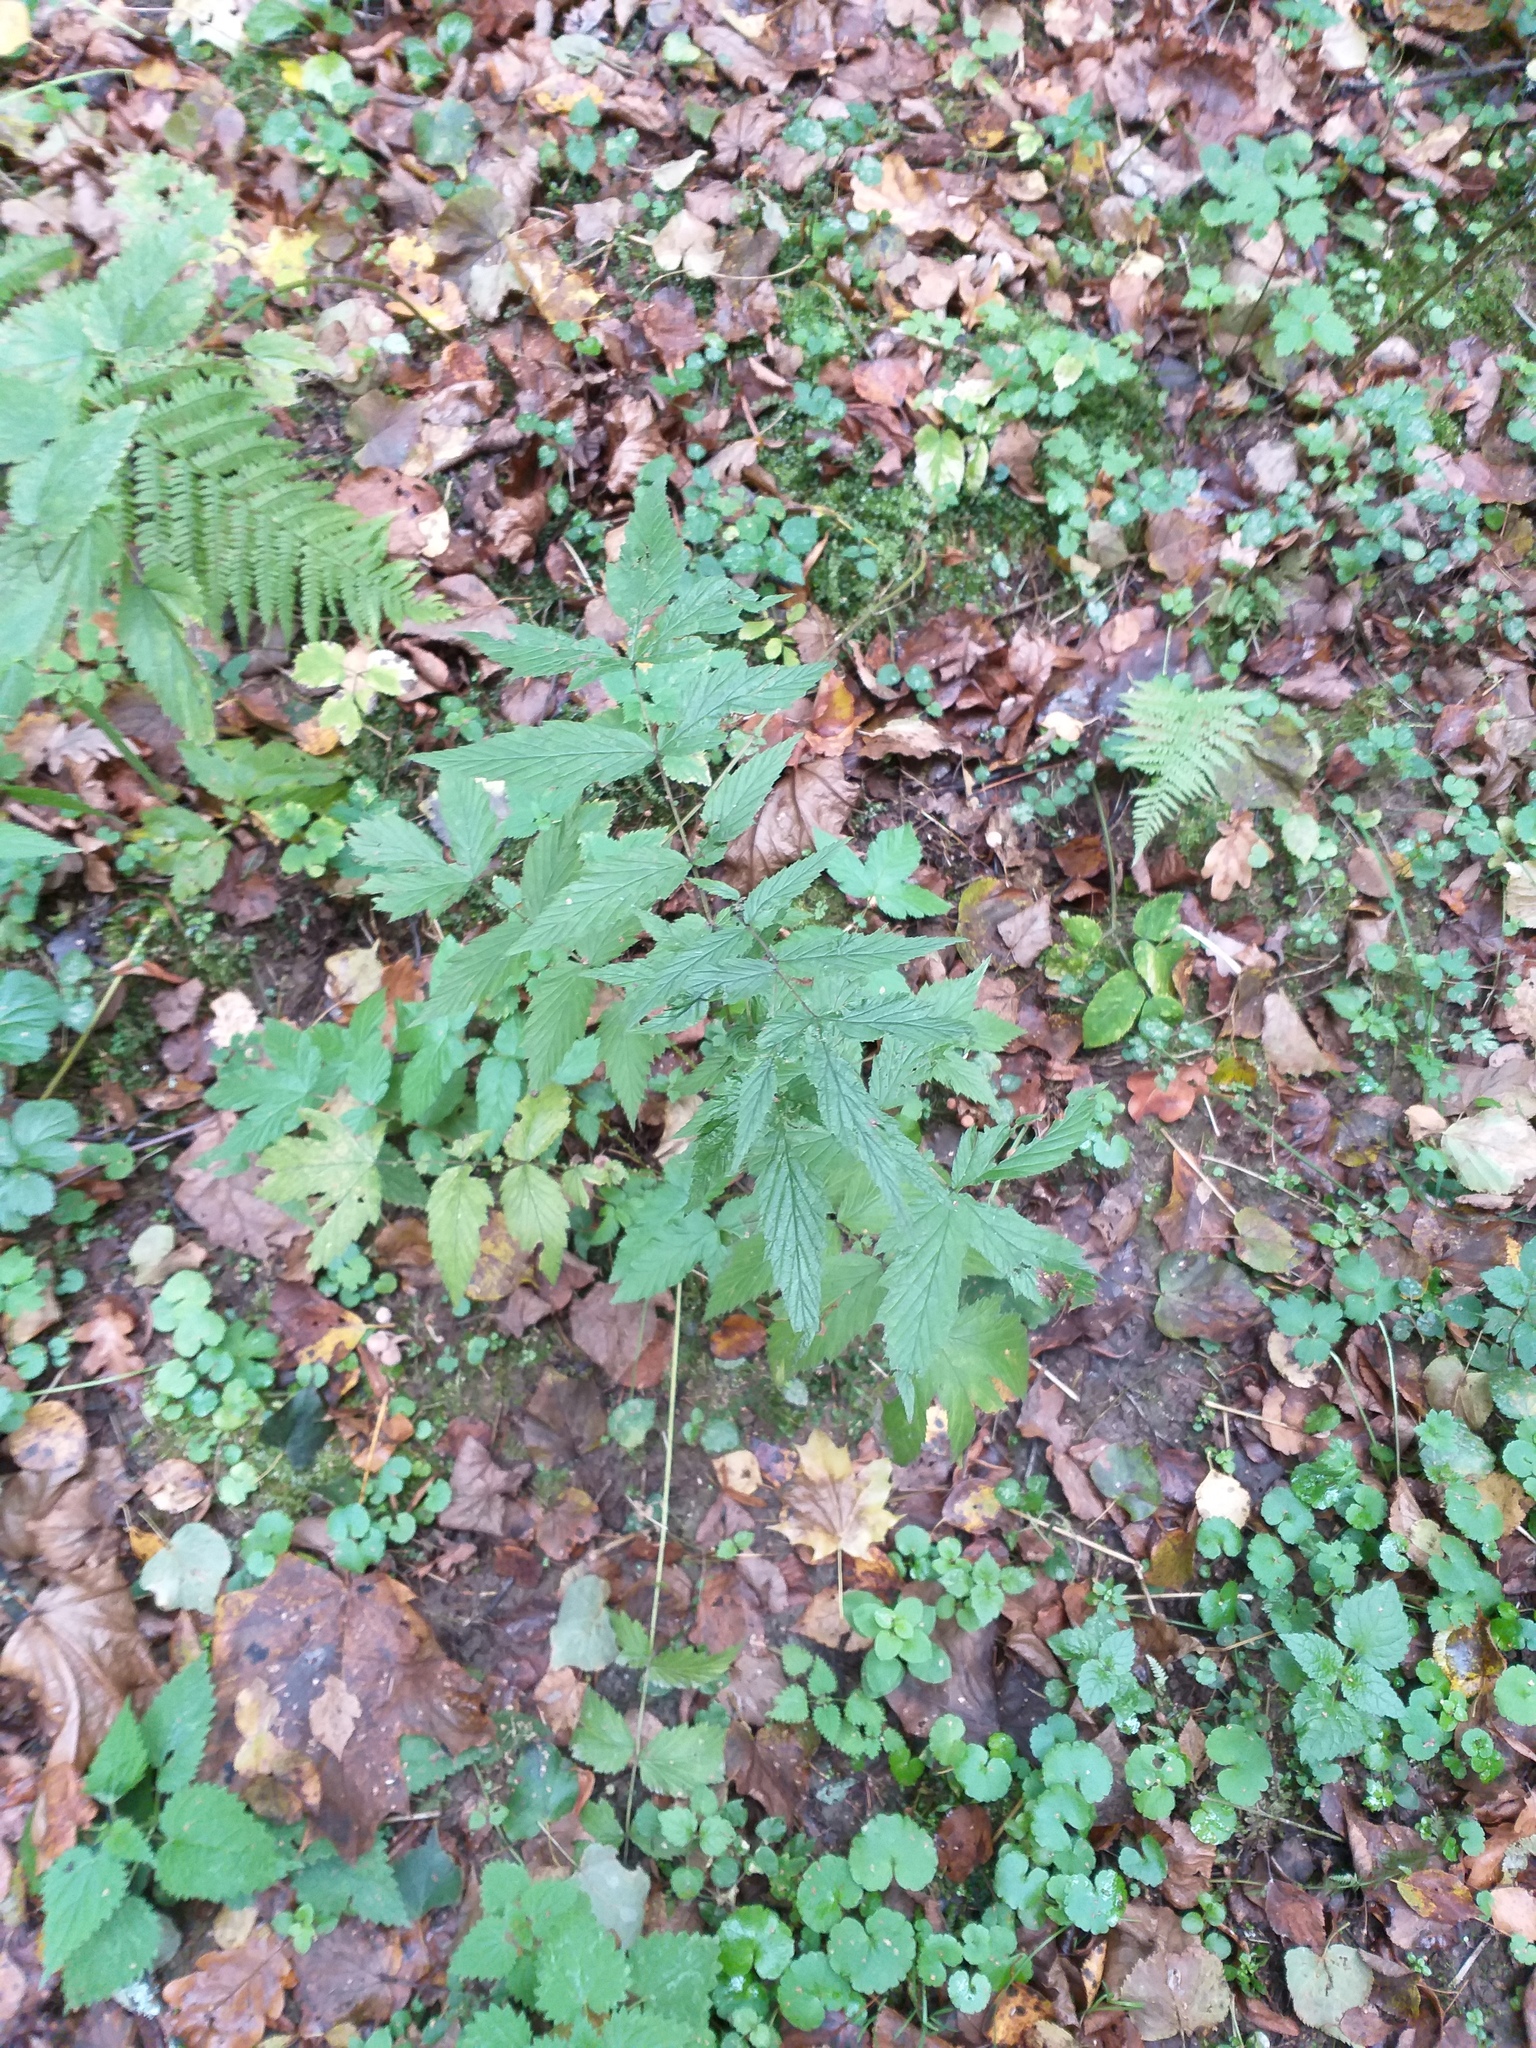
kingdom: Plantae
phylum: Tracheophyta
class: Magnoliopsida
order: Rosales
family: Rosaceae
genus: Filipendula
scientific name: Filipendula ulmaria
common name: Meadowsweet
